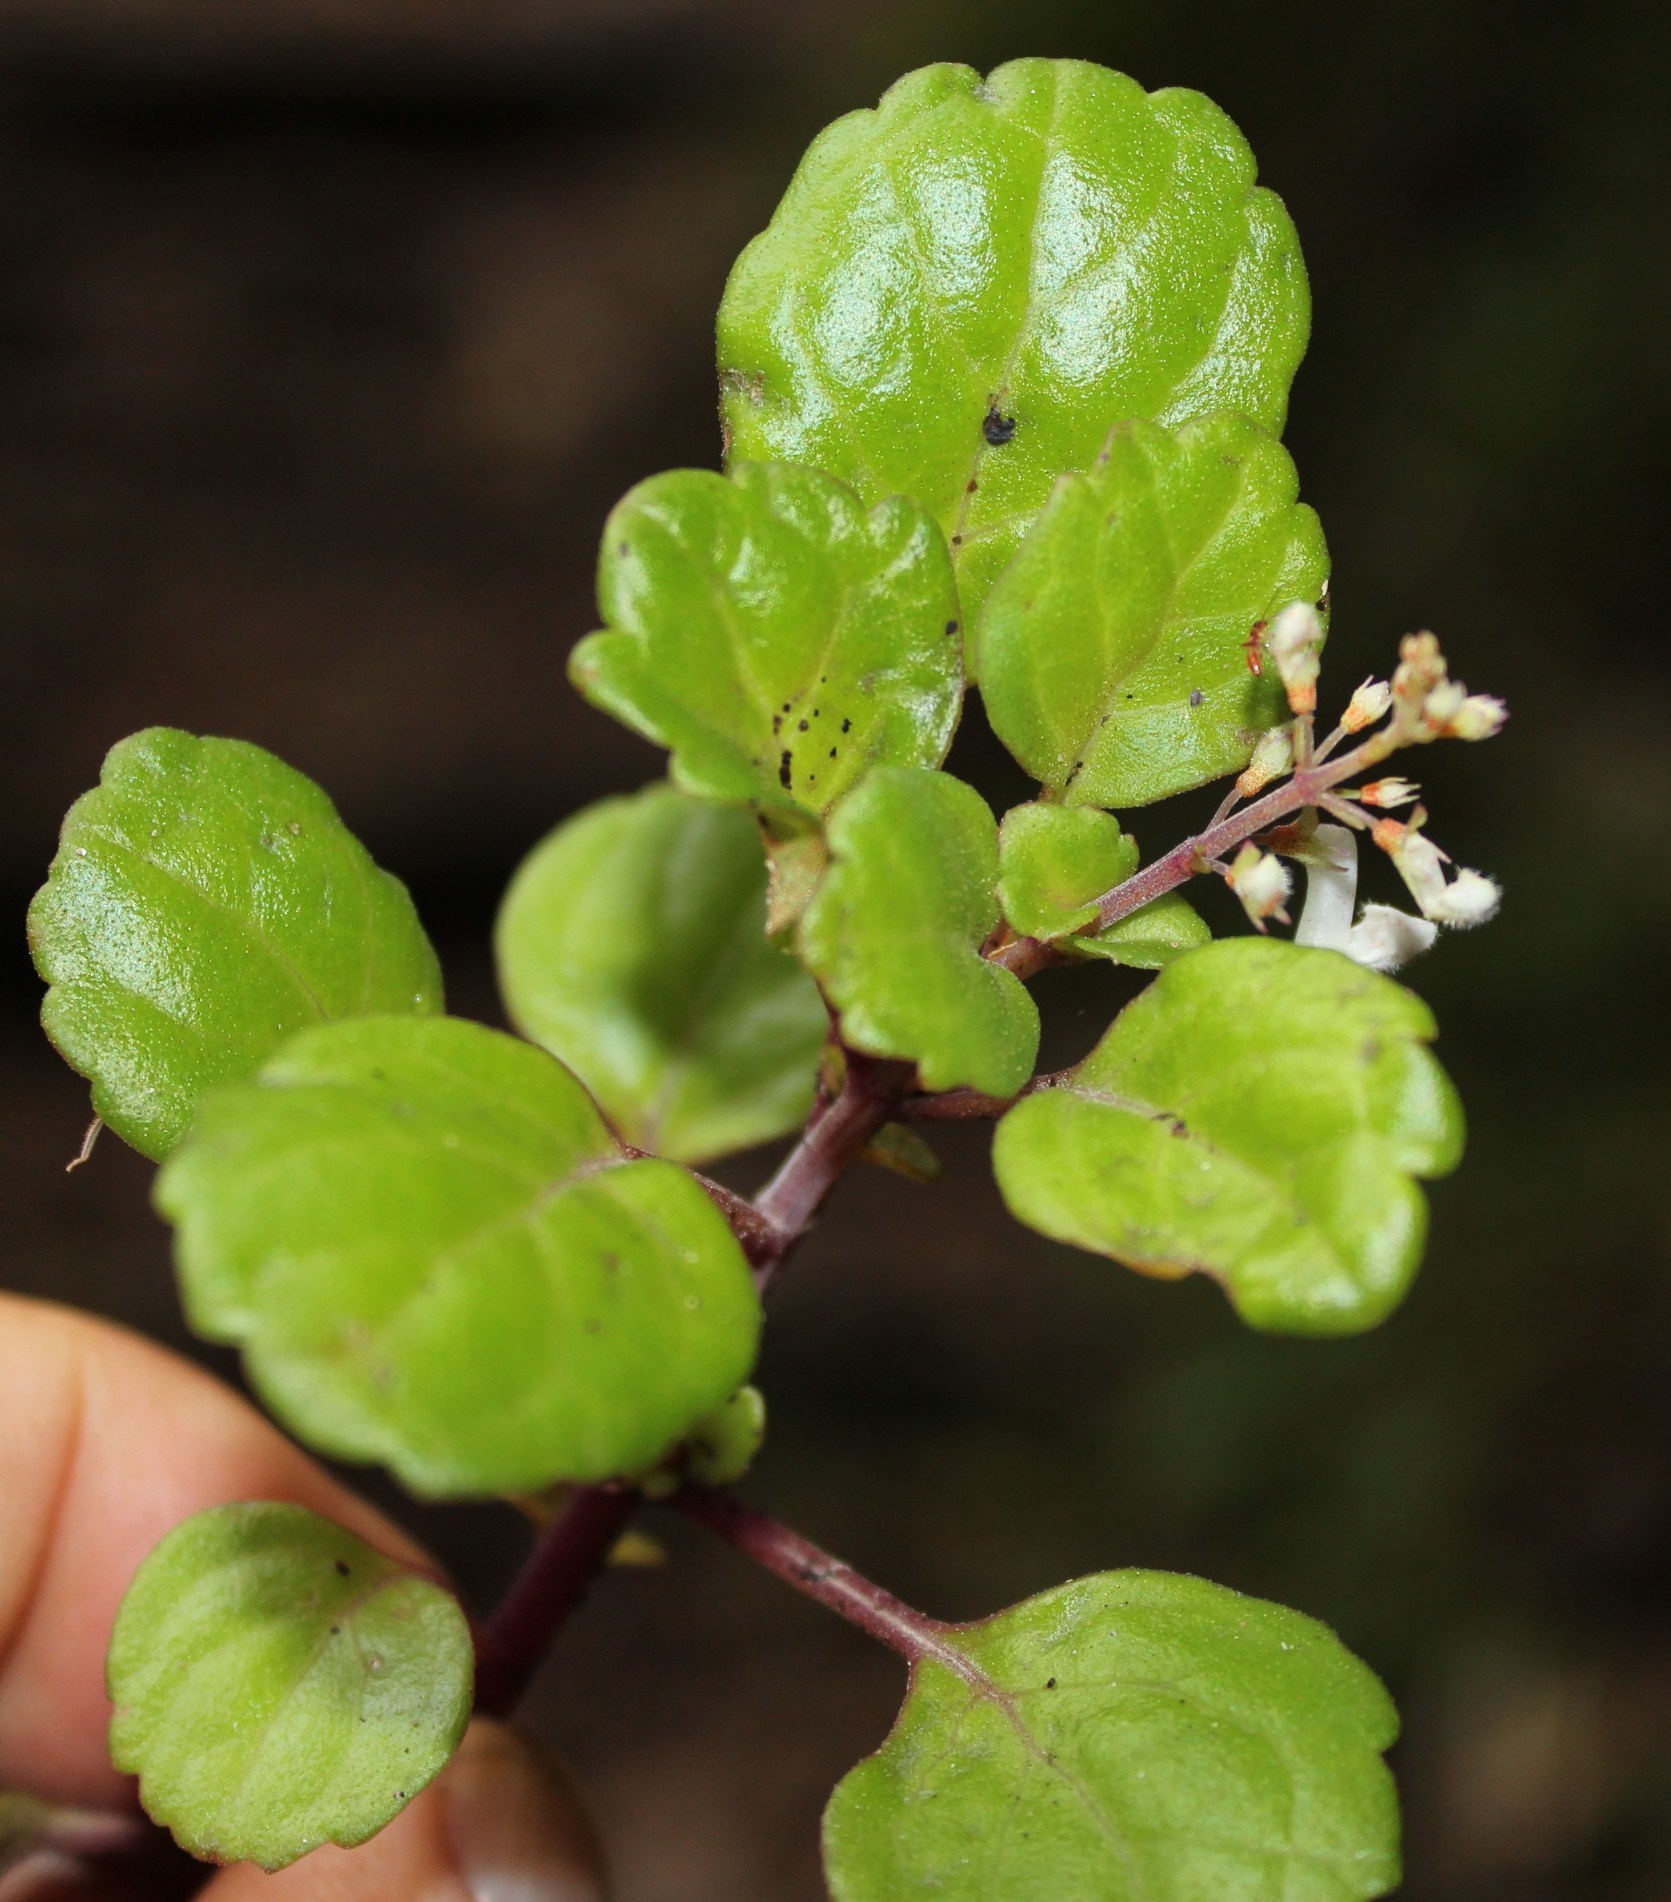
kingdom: Plantae
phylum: Tracheophyta
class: Magnoliopsida
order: Lamiales
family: Lamiaceae
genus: Plectranthus
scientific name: Plectranthus verticillatus
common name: Whorled plectranthus
